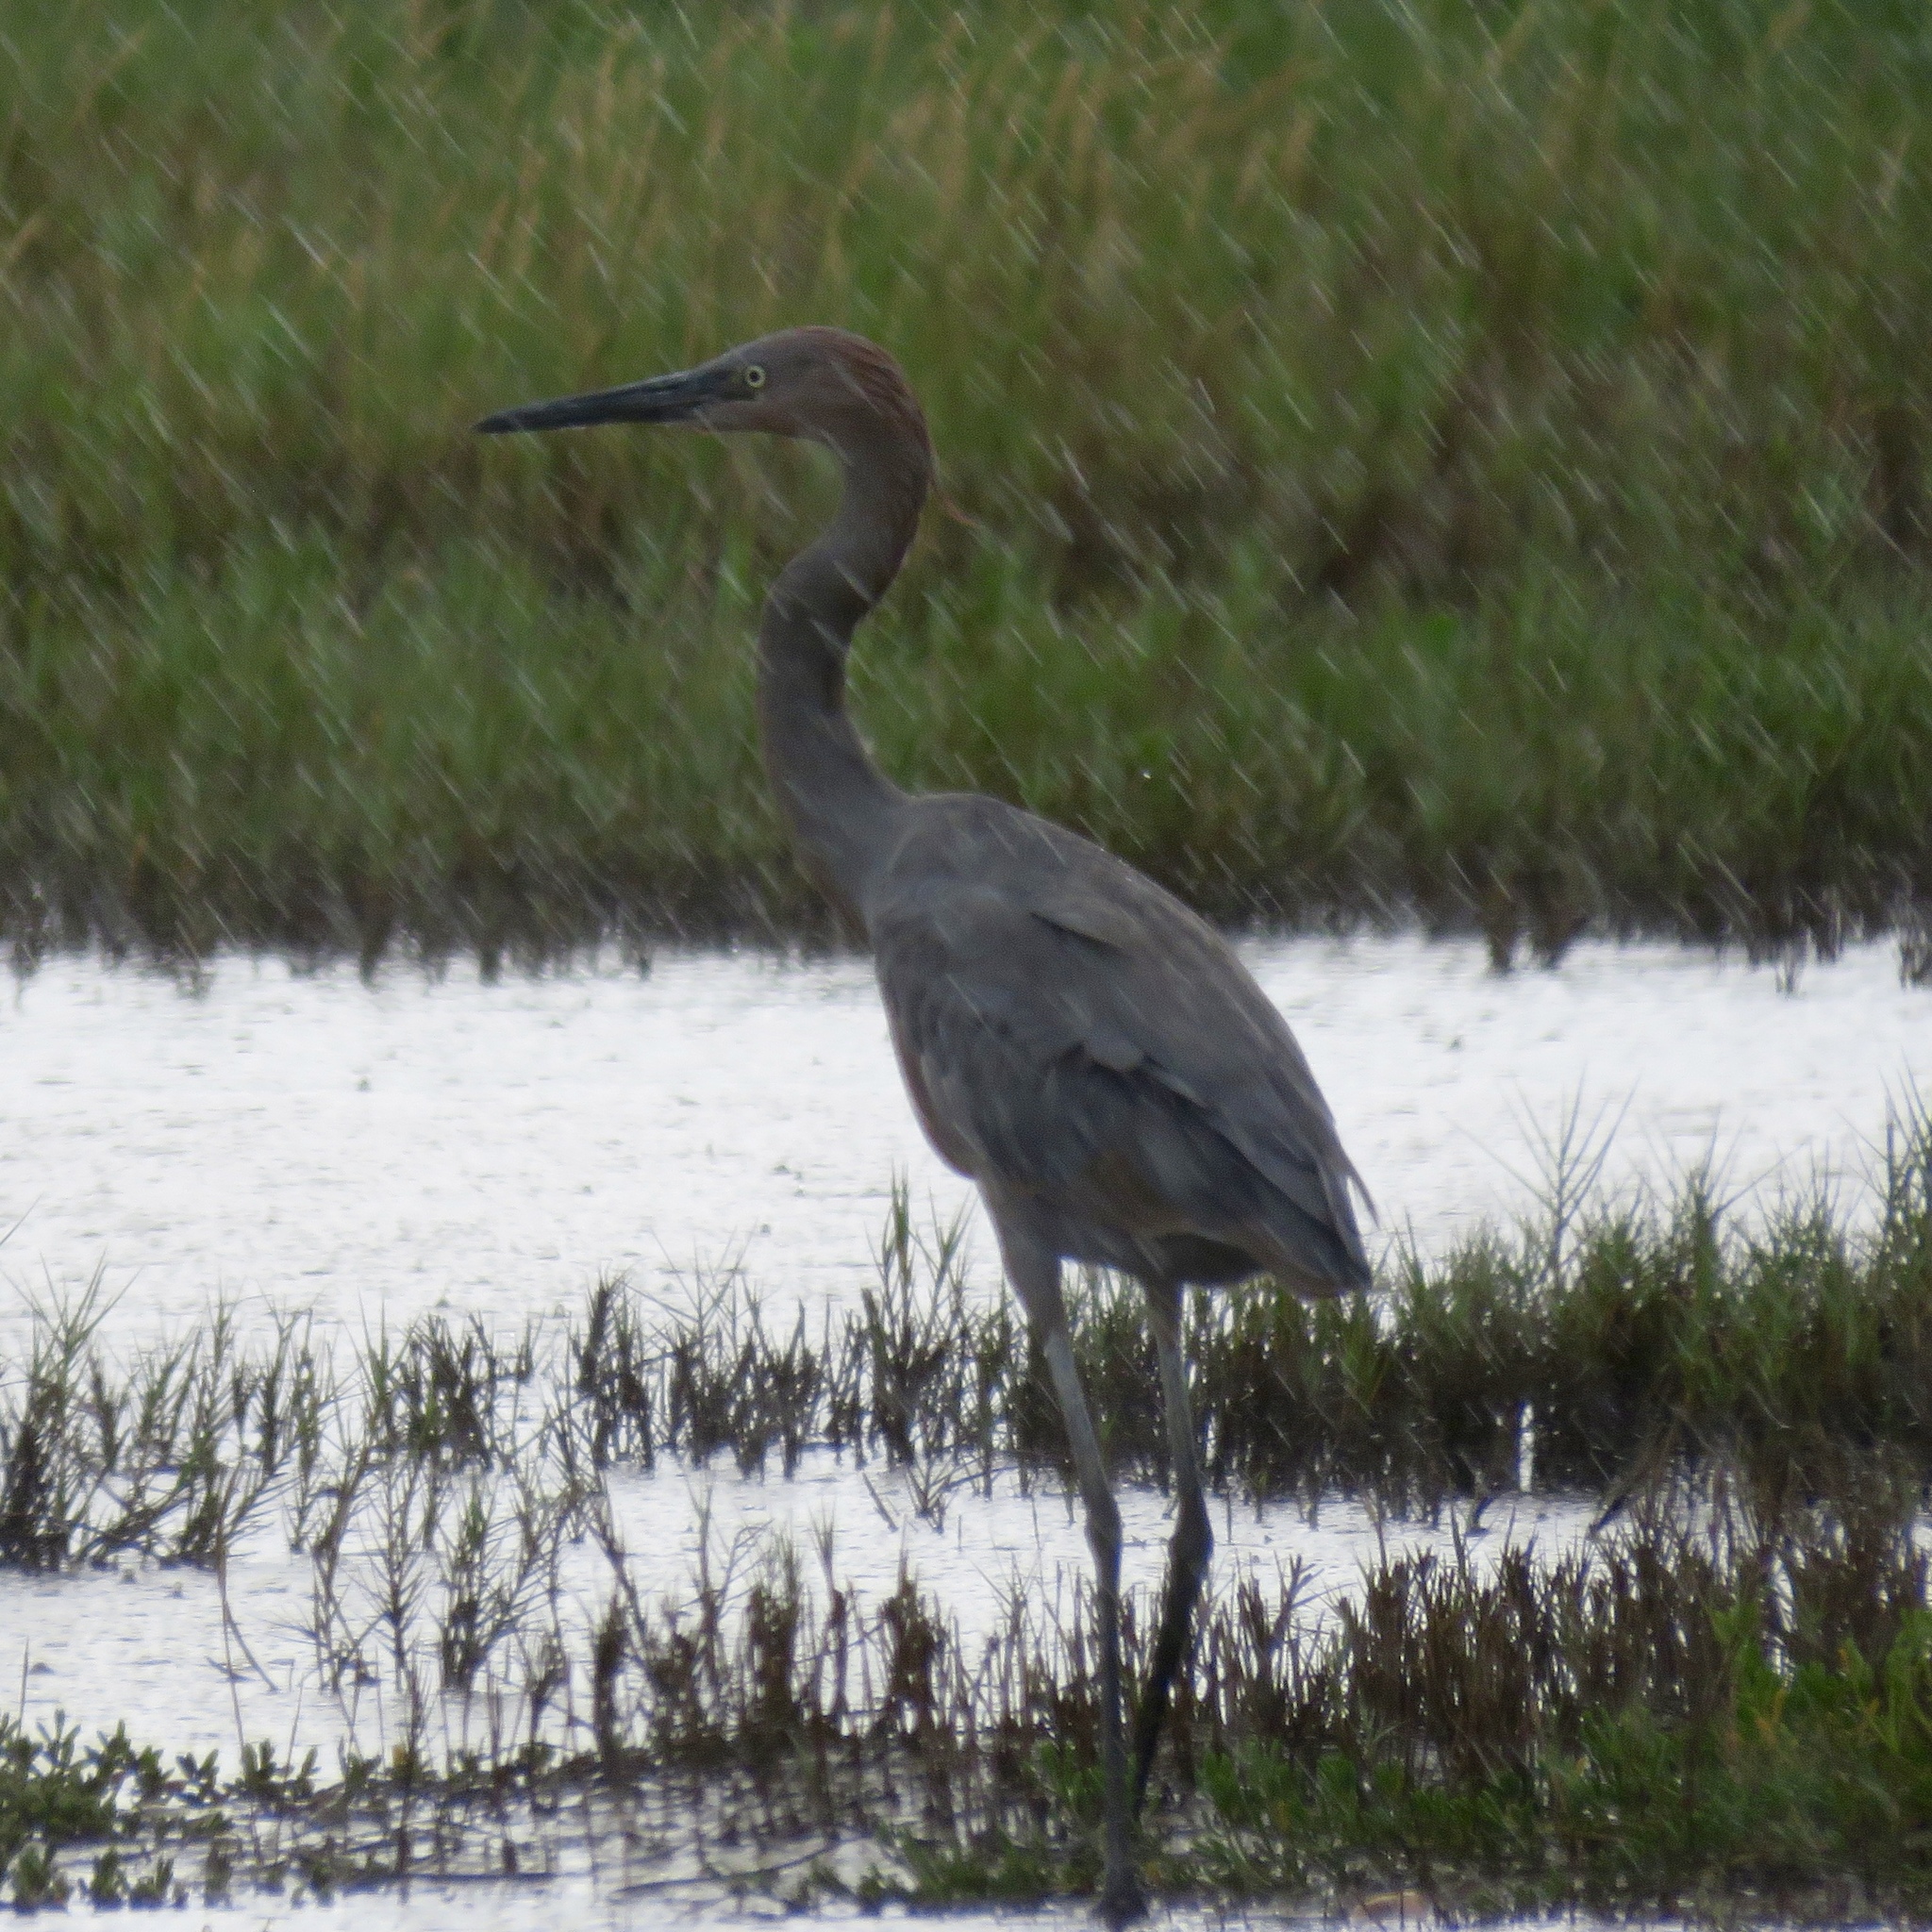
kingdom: Animalia
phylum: Chordata
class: Aves
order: Pelecaniformes
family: Ardeidae
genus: Egretta
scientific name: Egretta rufescens
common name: Reddish egret
